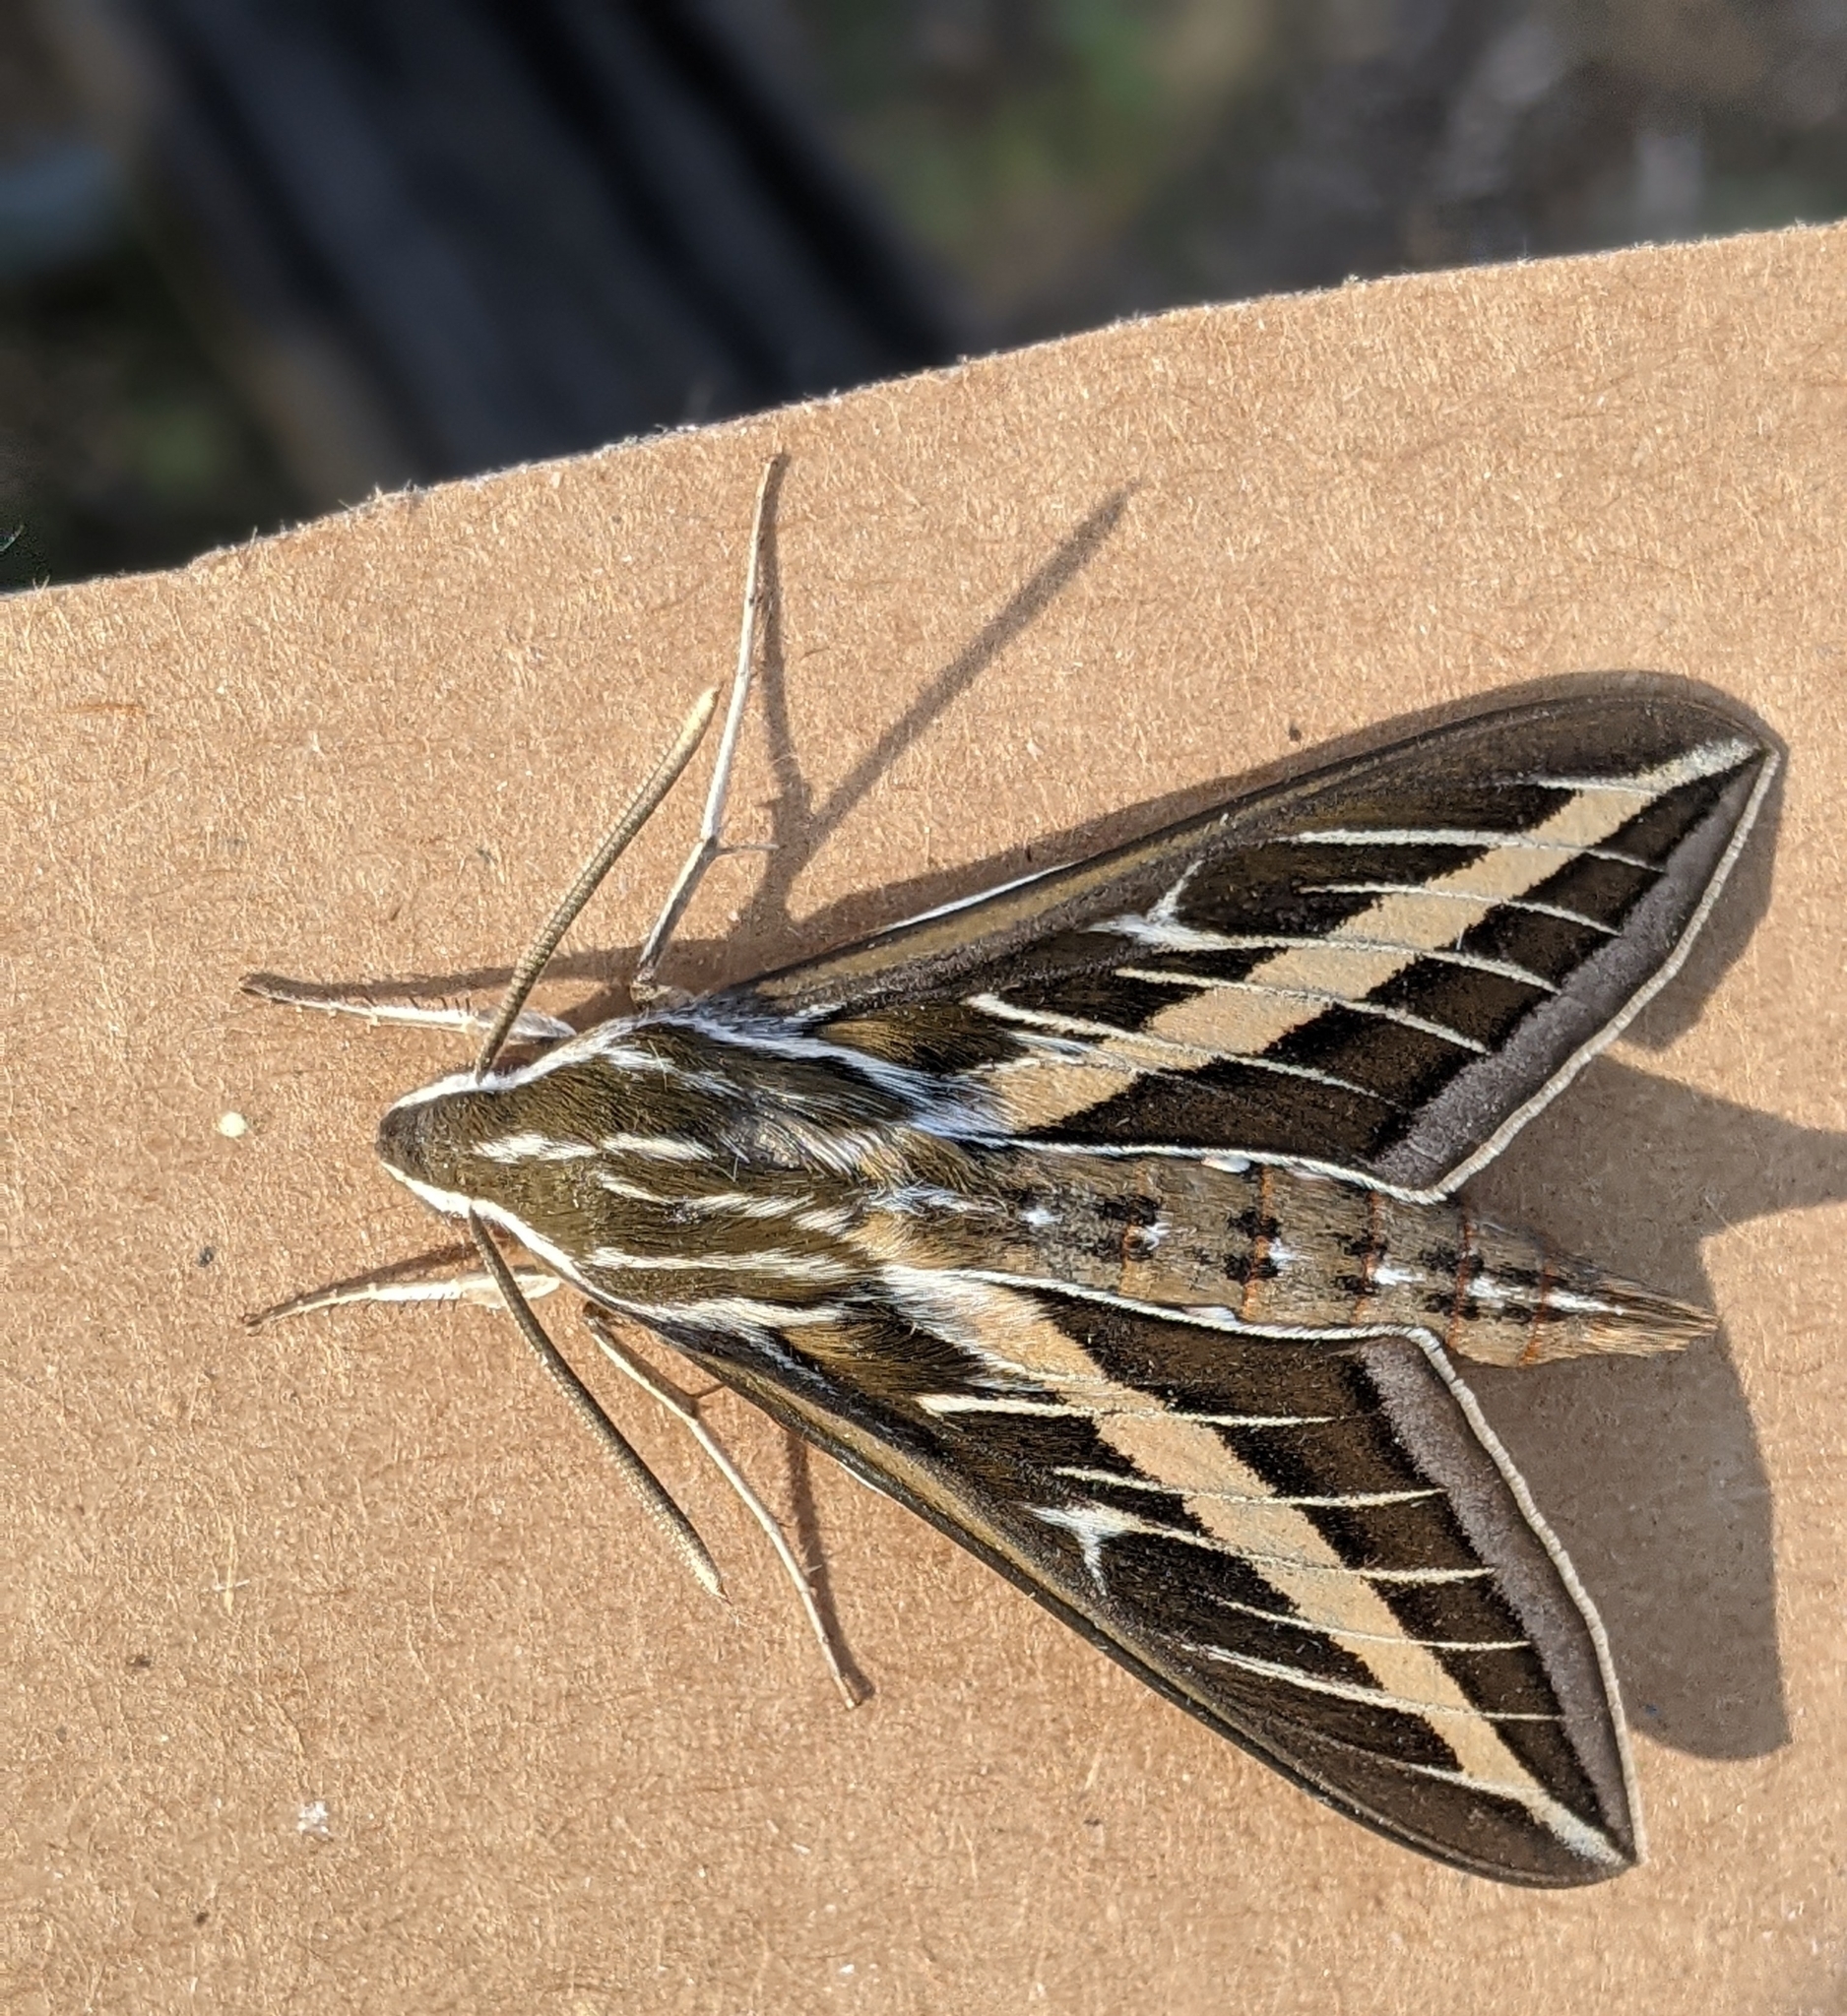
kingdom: Animalia
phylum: Arthropoda
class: Insecta
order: Lepidoptera
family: Sphingidae
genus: Hyles
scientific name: Hyles lineata
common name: White-lined sphinx
